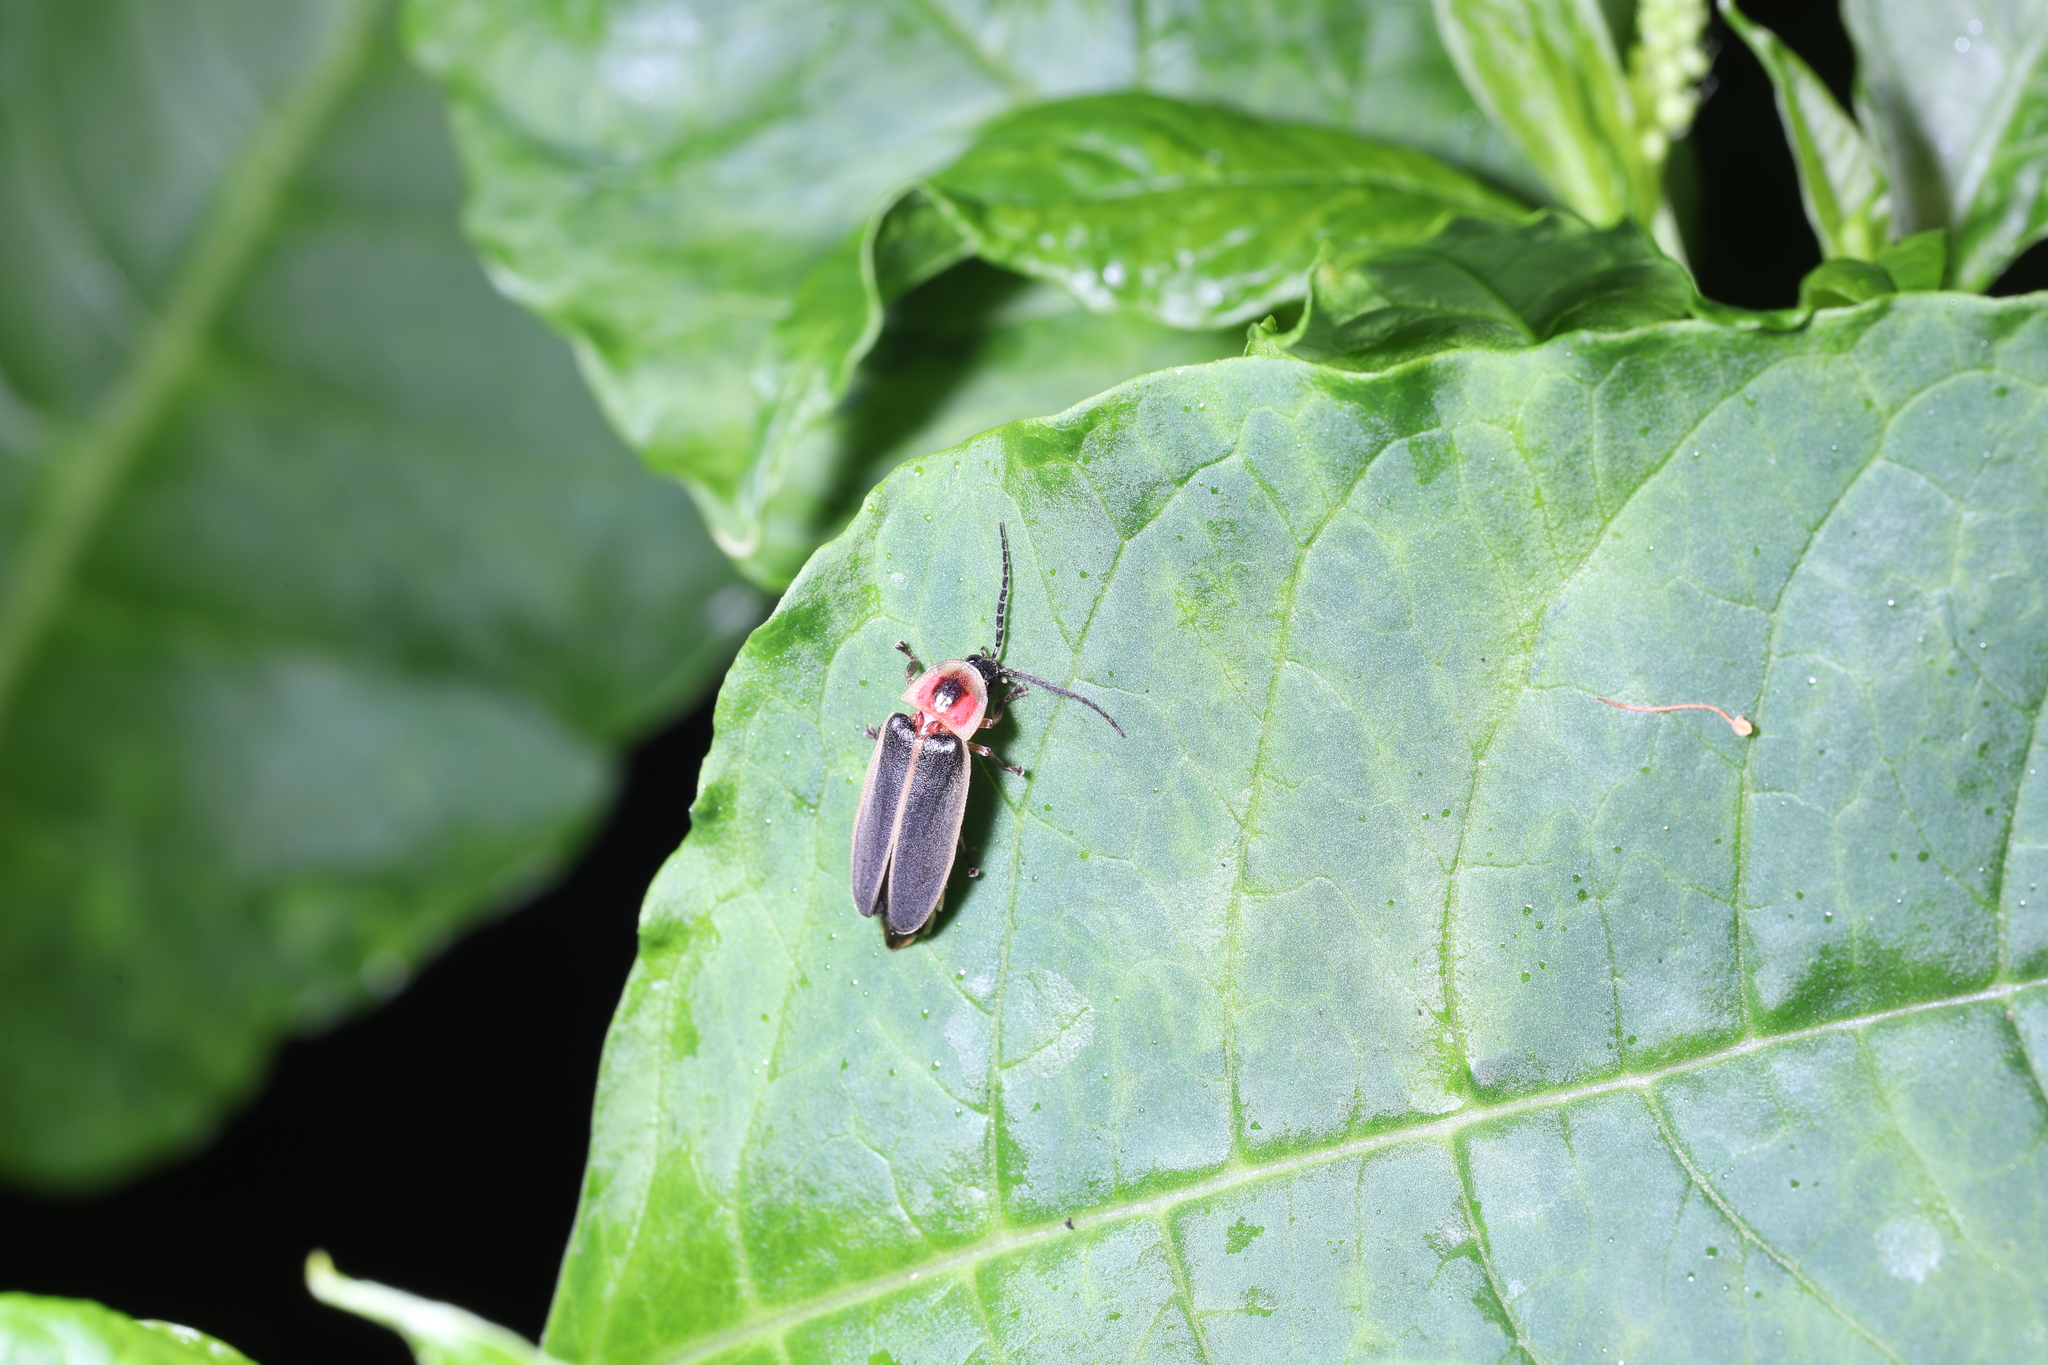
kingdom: Animalia
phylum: Arthropoda
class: Insecta
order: Coleoptera
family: Lampyridae
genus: Photinus
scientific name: Photinus pyralis
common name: Big dipper firefly
